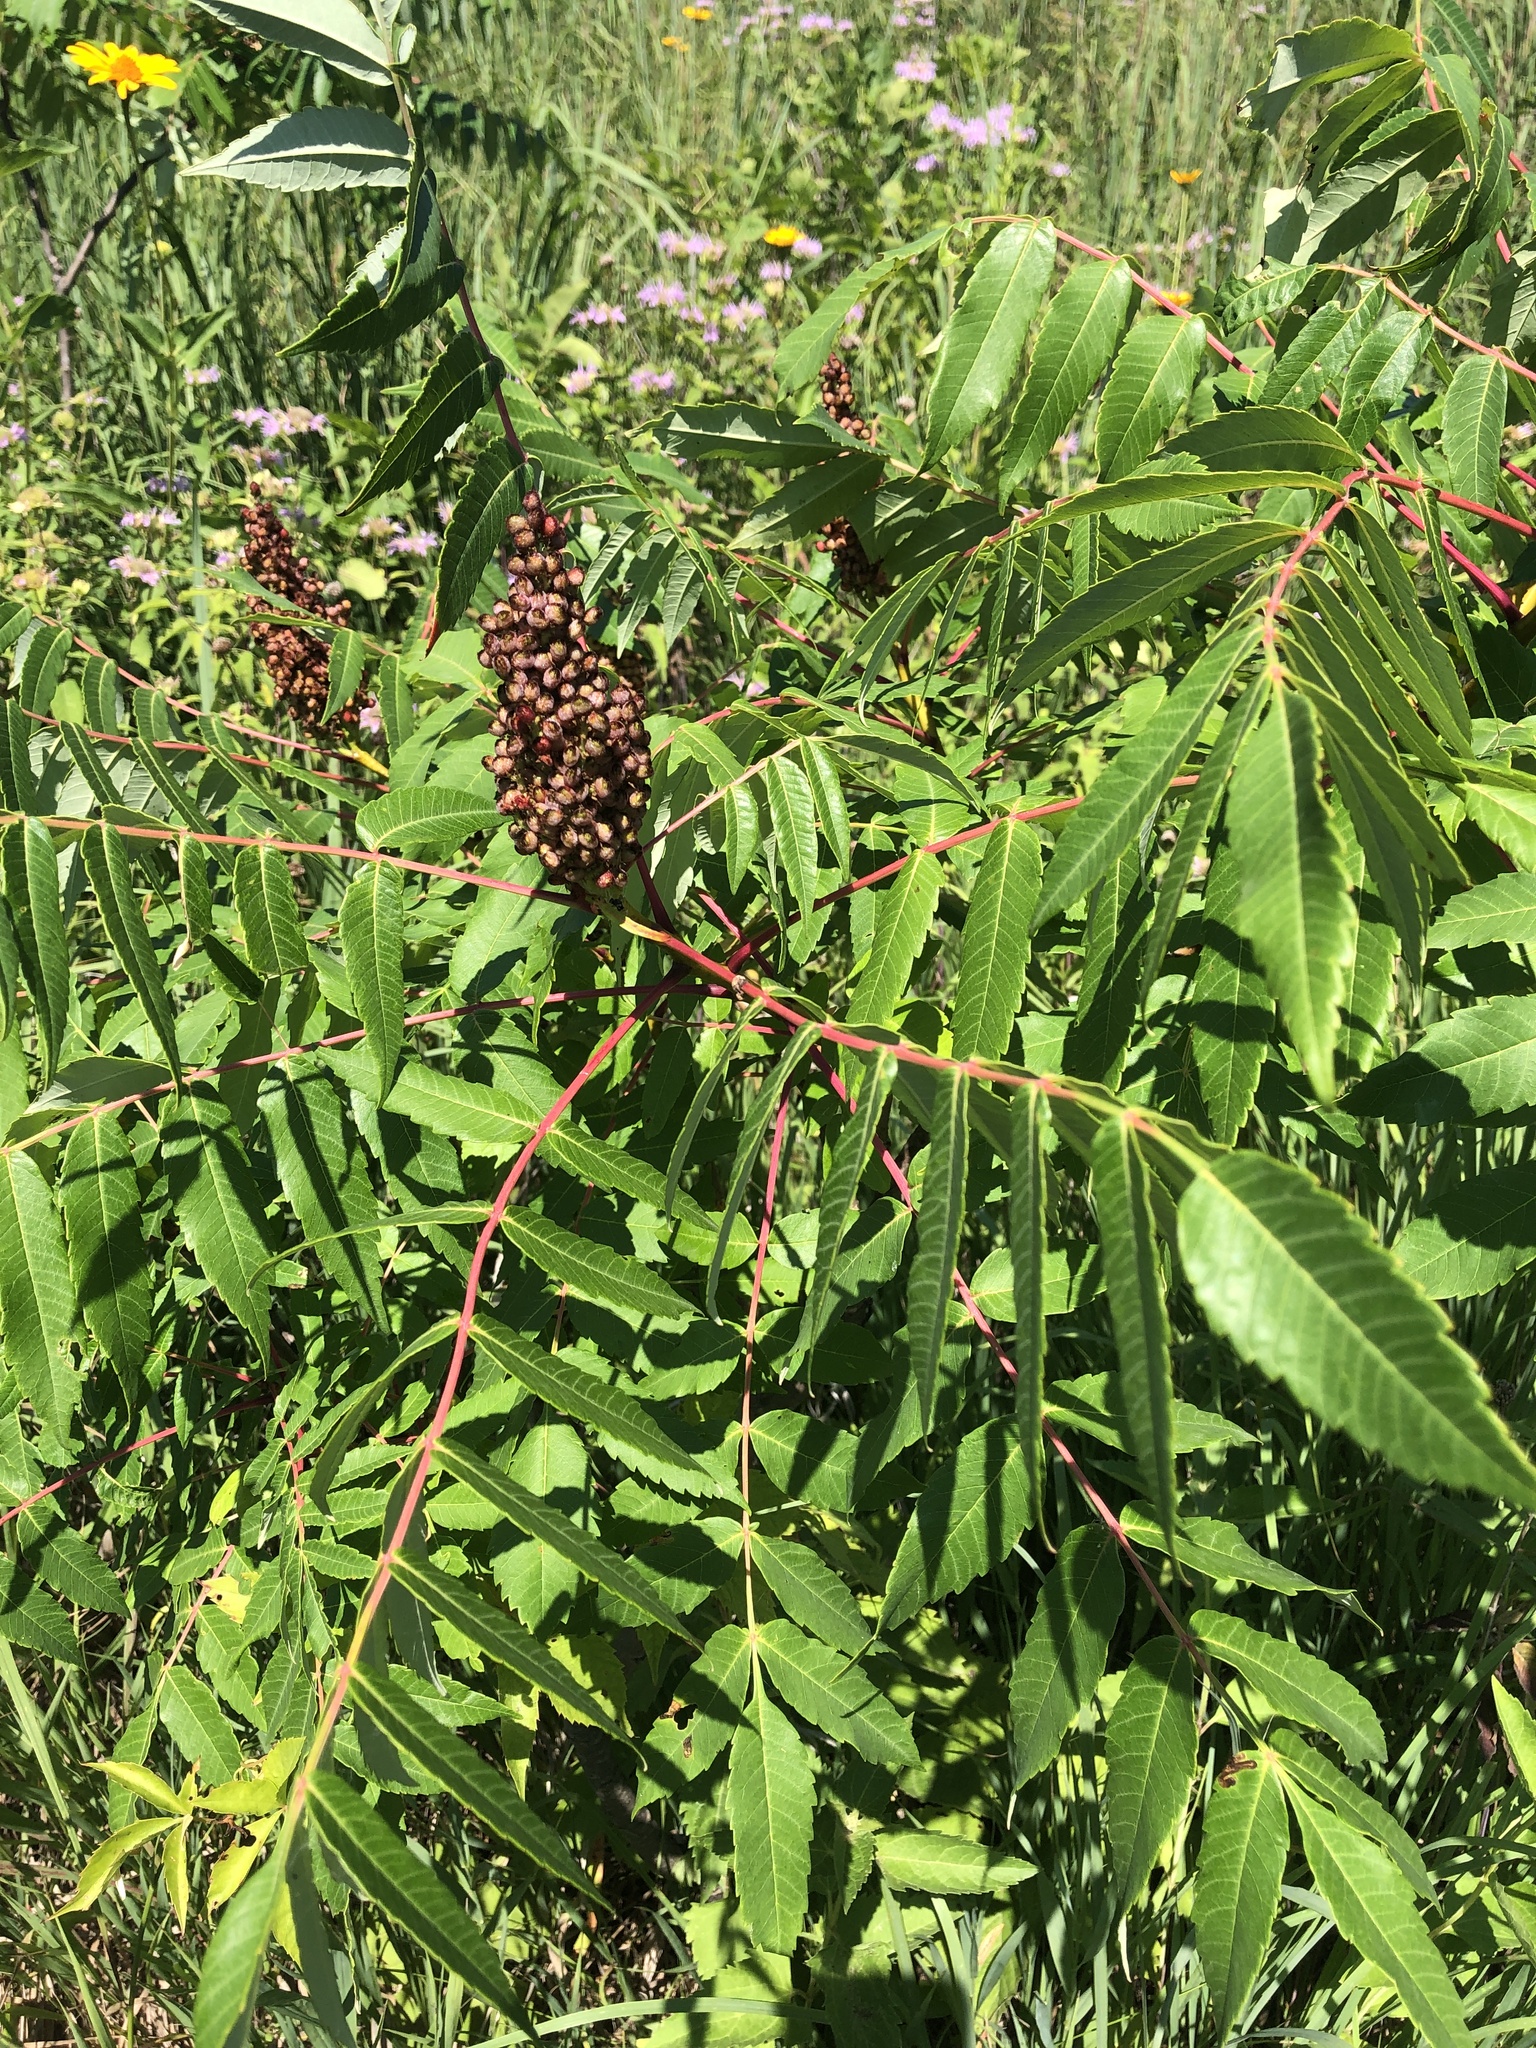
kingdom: Plantae
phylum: Tracheophyta
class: Magnoliopsida
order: Sapindales
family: Anacardiaceae
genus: Rhus
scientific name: Rhus glabra
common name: Scarlet sumac
